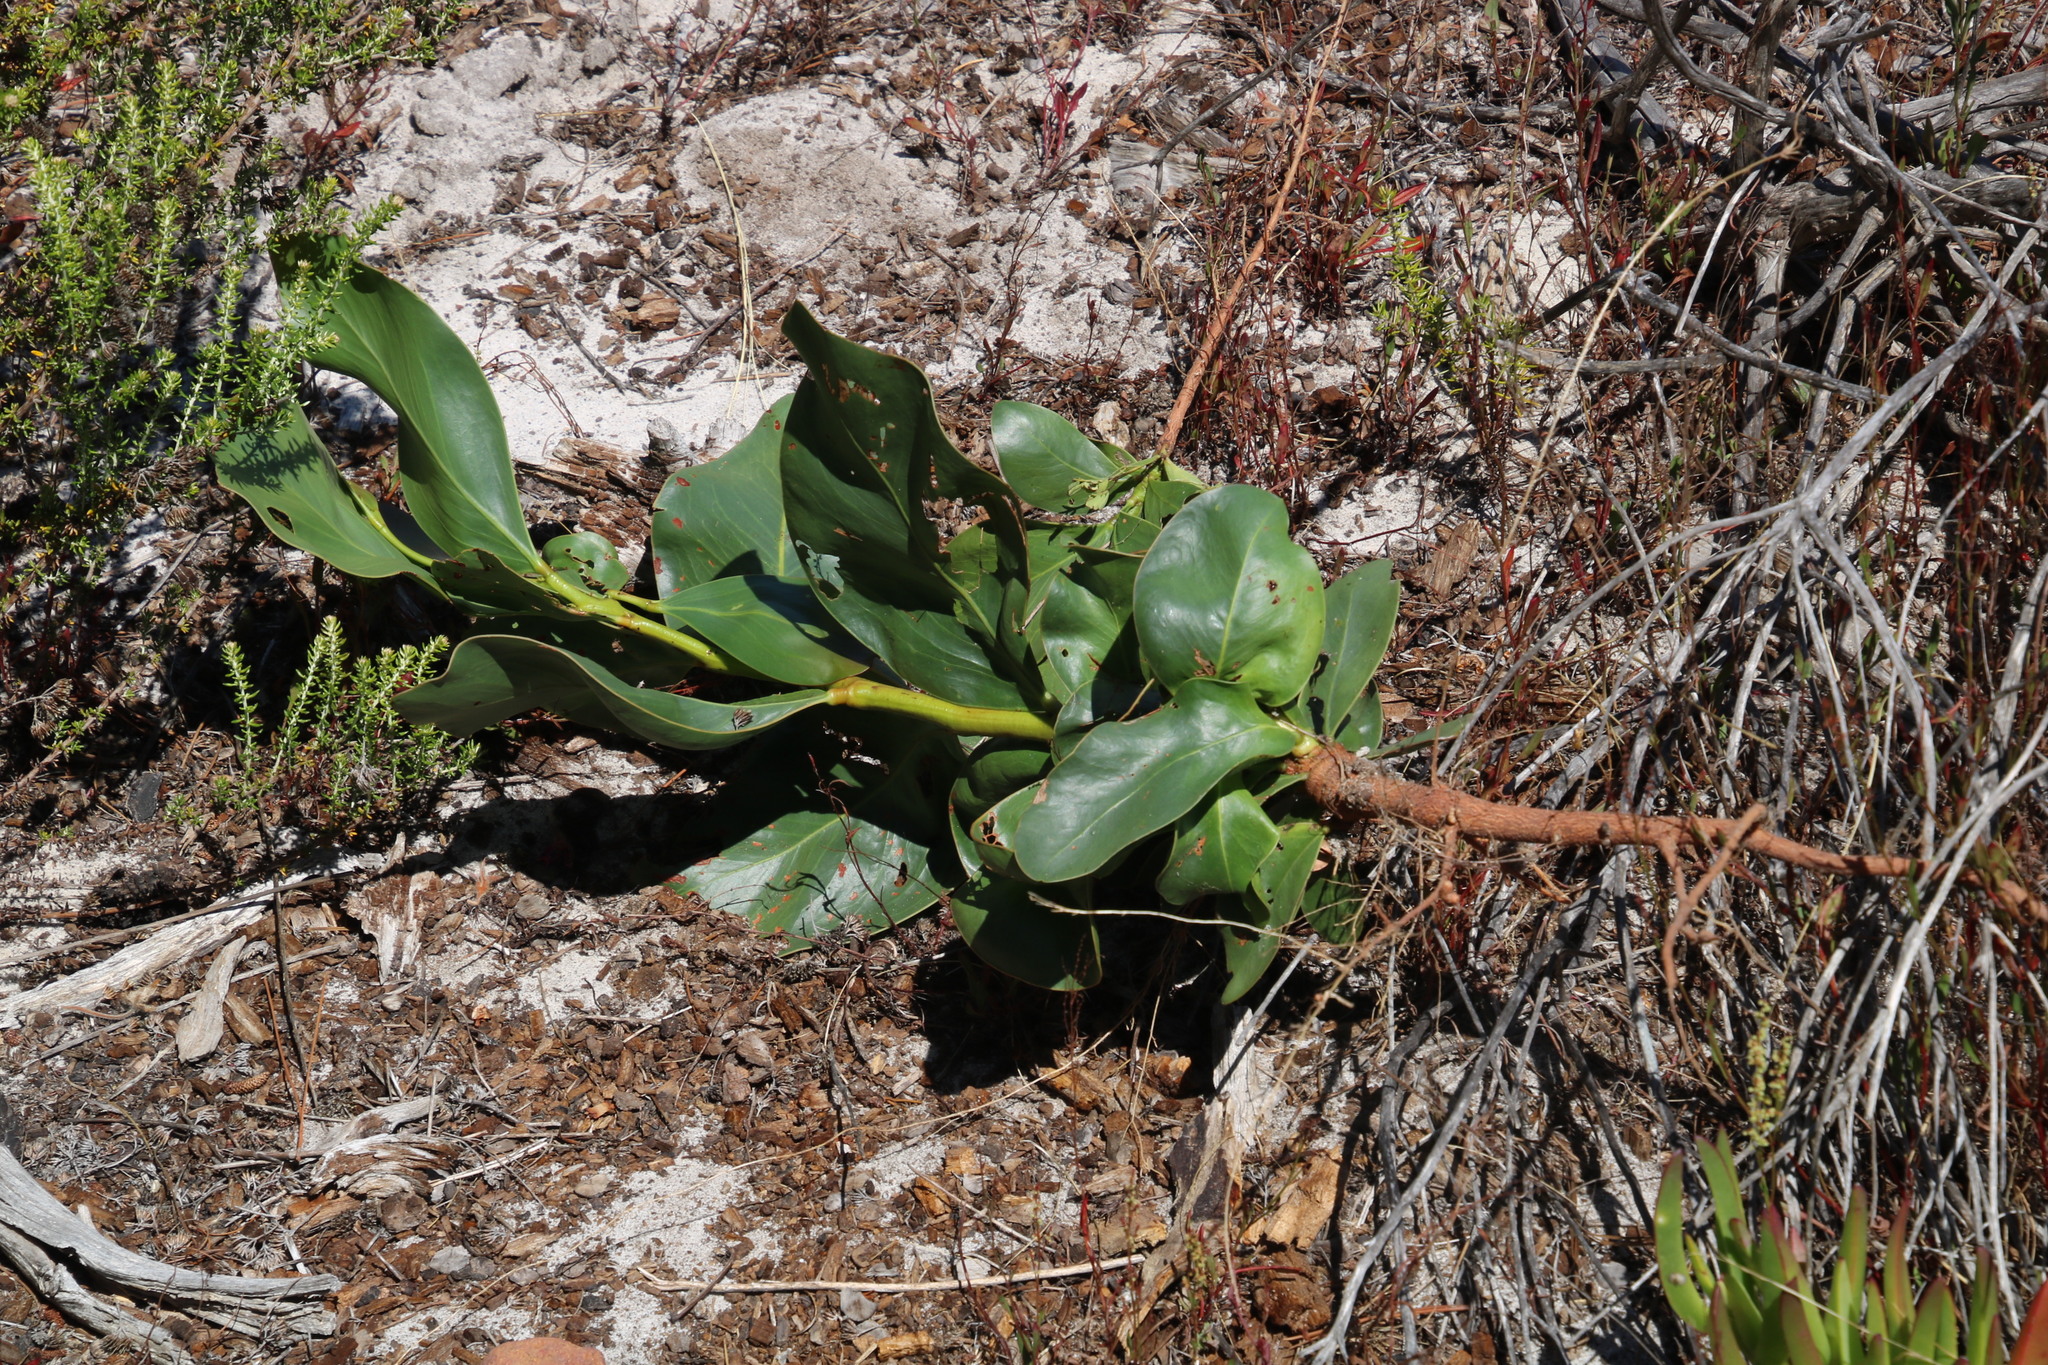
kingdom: Plantae
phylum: Tracheophyta
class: Magnoliopsida
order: Fabales
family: Fabaceae
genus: Acacia
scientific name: Acacia pycnantha
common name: Golden wattle
